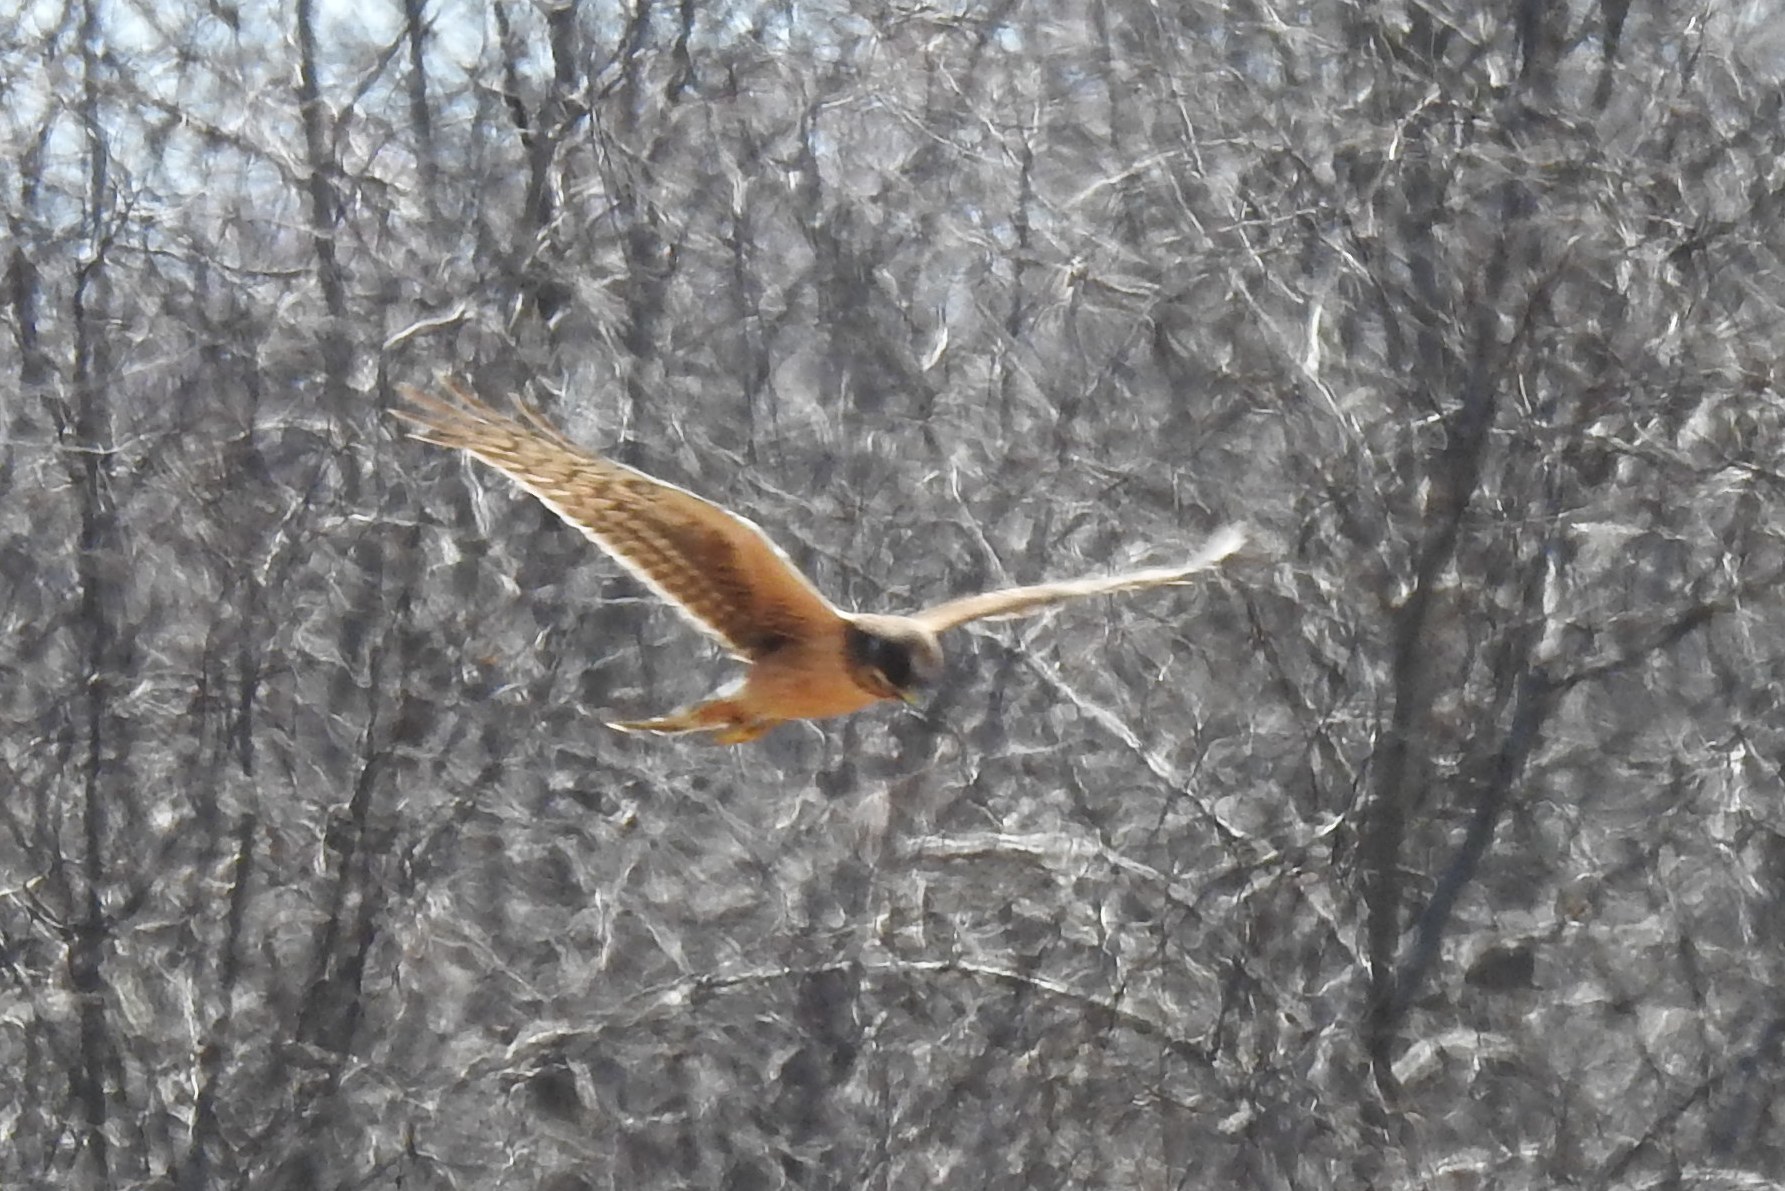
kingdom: Animalia
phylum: Chordata
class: Aves
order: Accipitriformes
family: Accipitridae
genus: Circus
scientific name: Circus cyaneus
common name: Hen harrier
